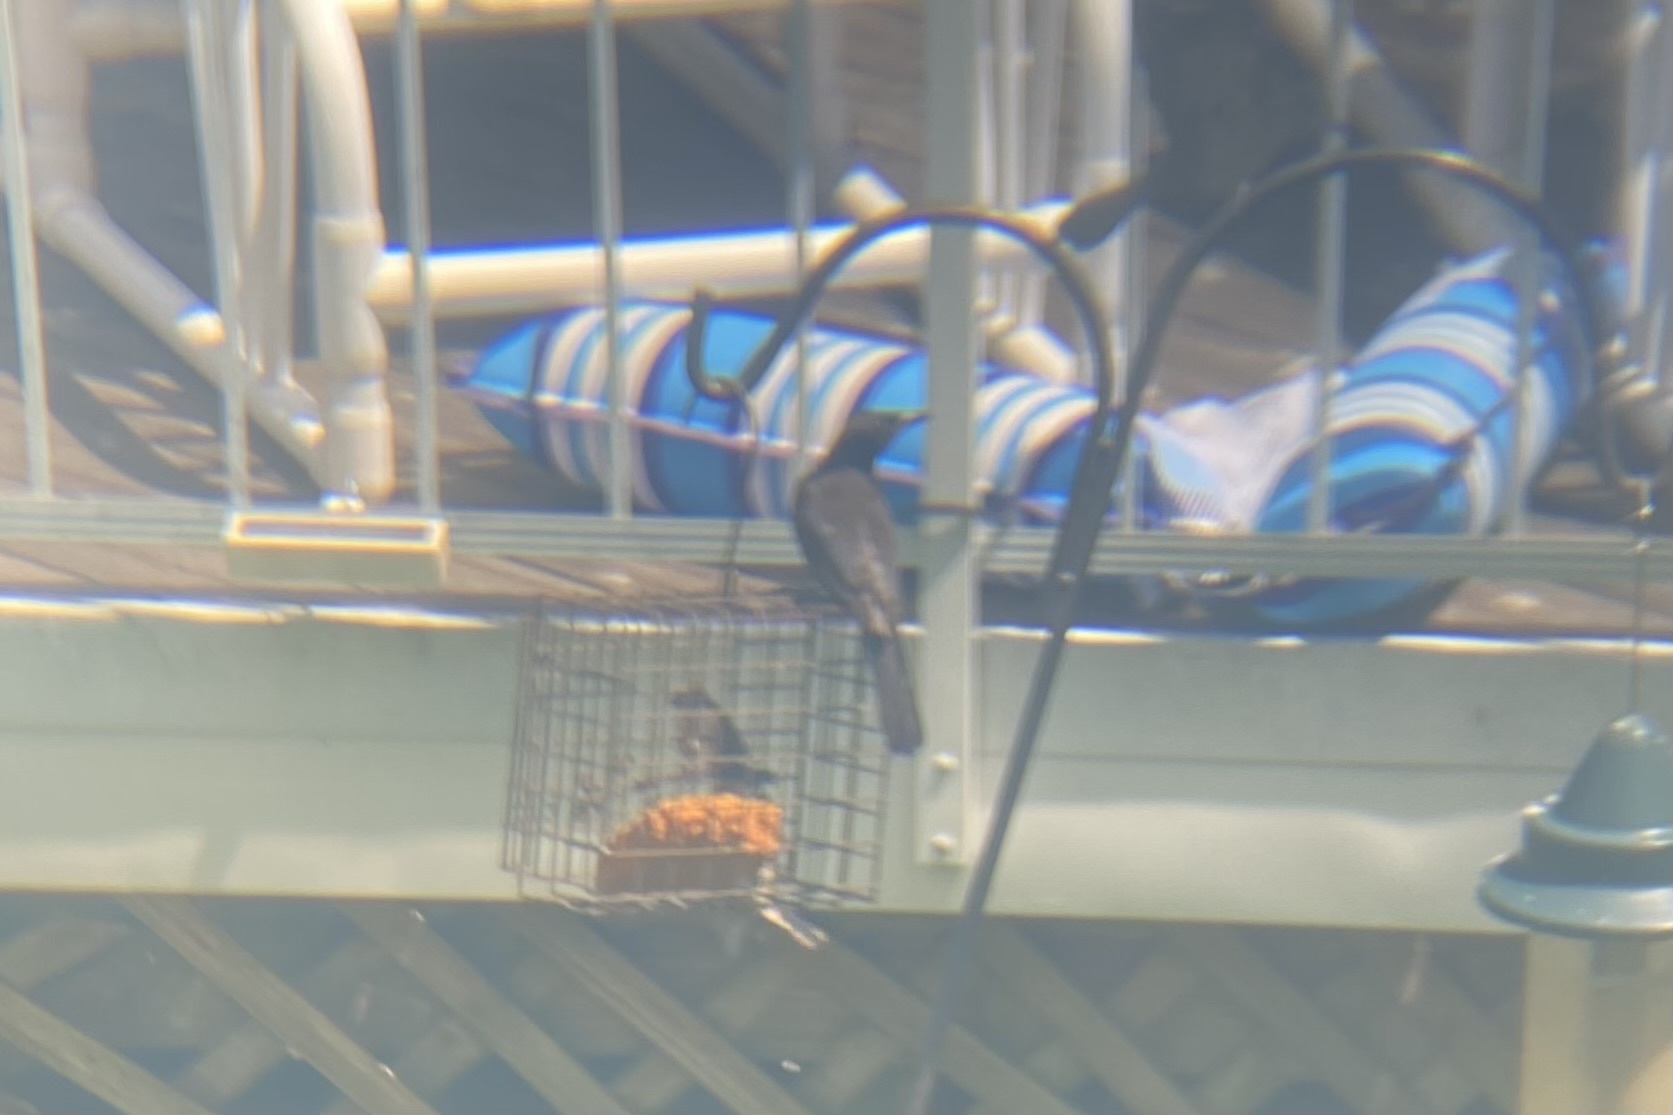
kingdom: Animalia
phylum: Chordata
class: Aves
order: Passeriformes
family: Icteridae
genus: Quiscalus
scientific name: Quiscalus quiscula
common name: Common grackle
